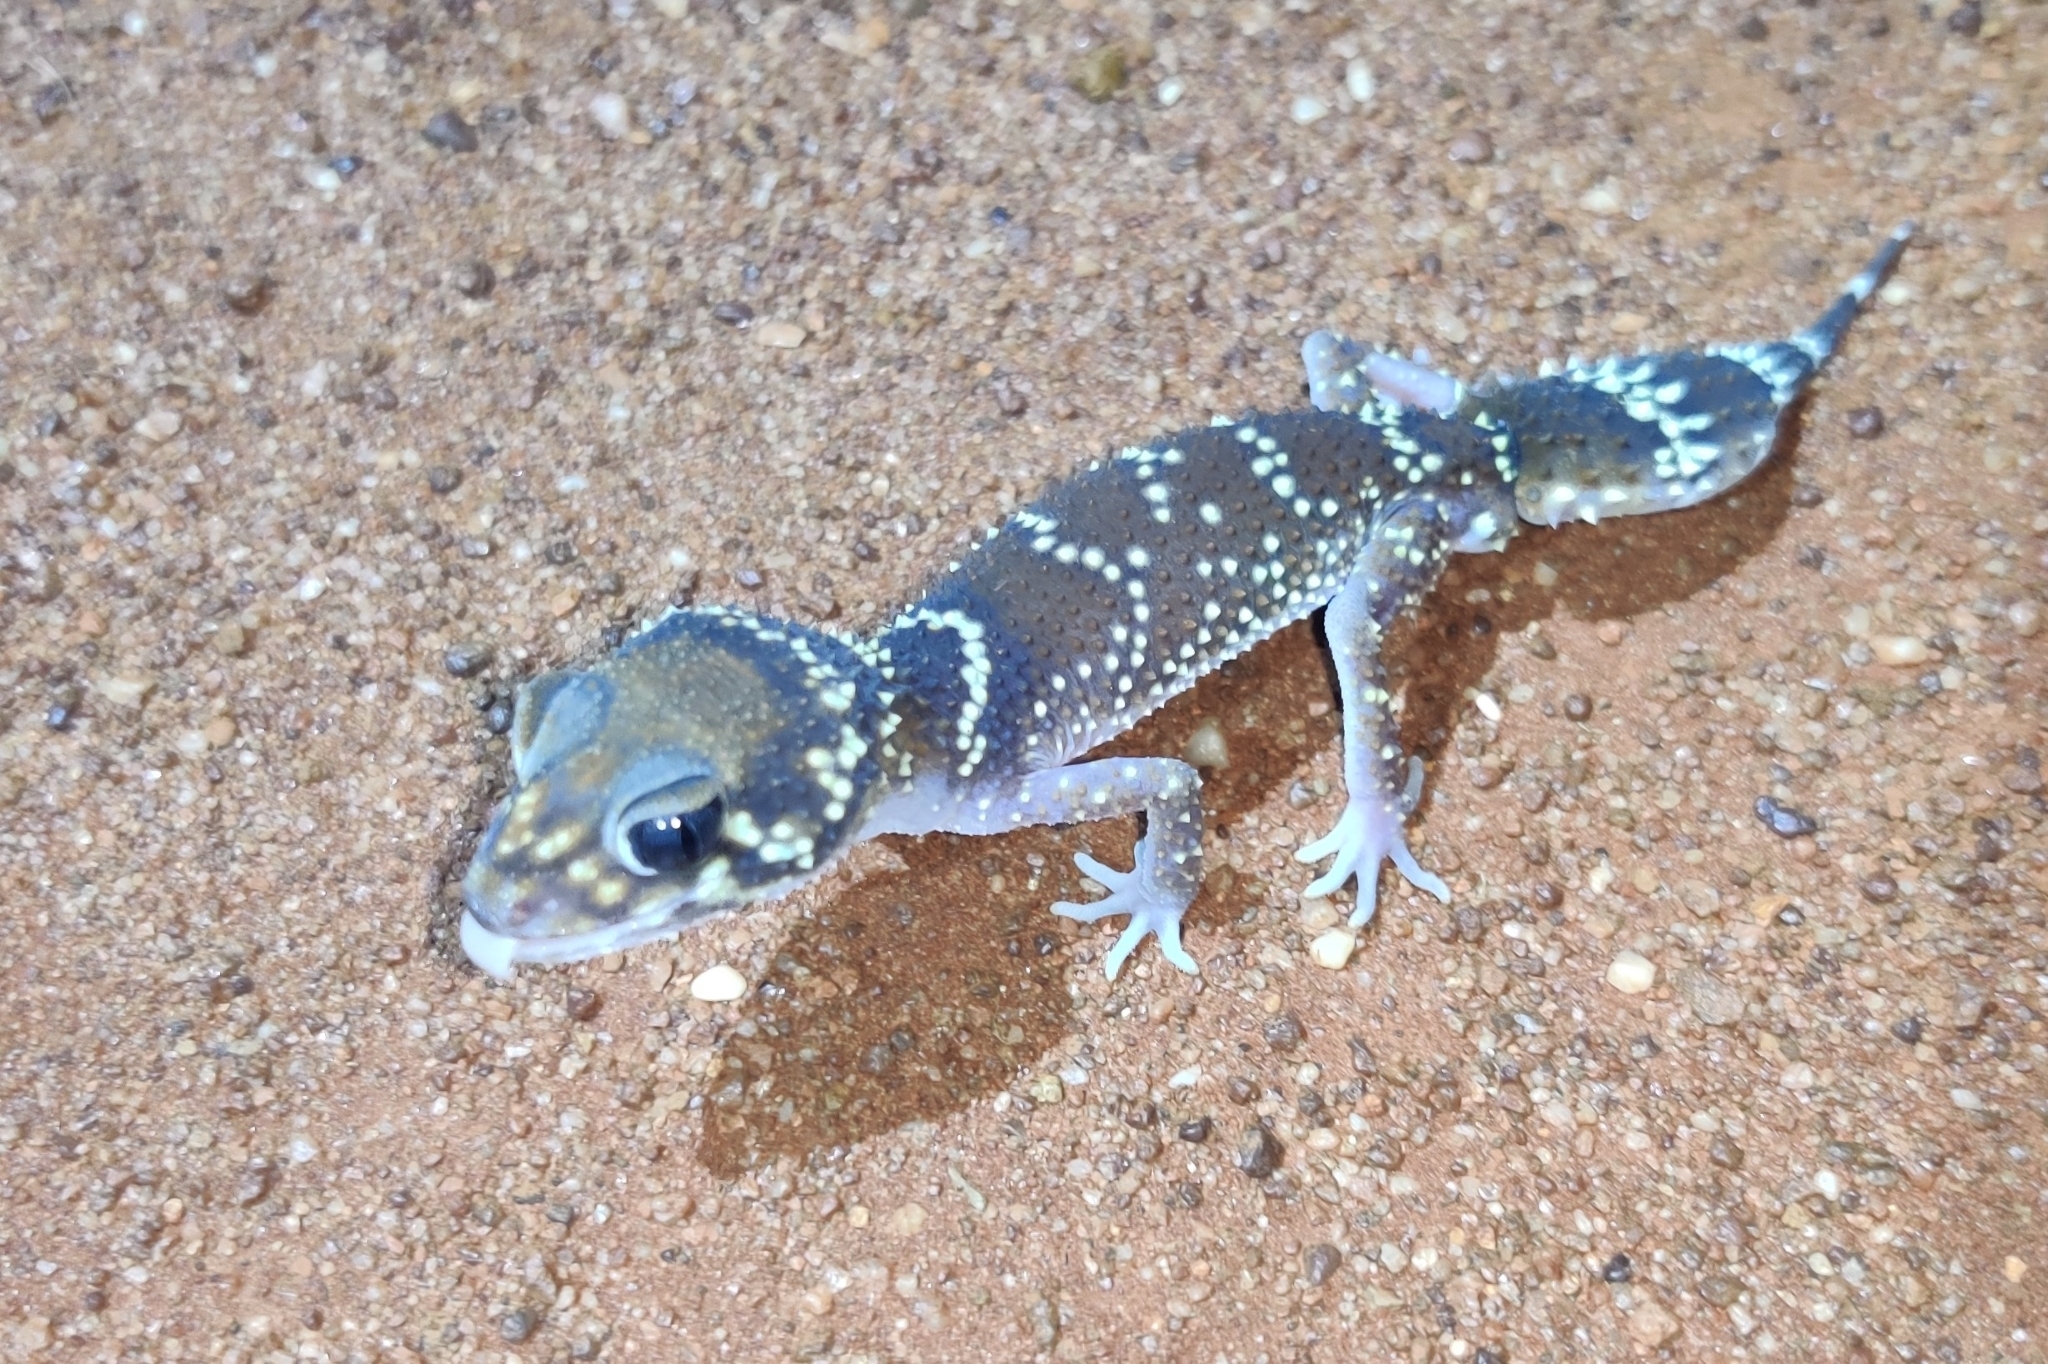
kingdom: Animalia
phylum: Chordata
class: Squamata
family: Carphodactylidae
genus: Underwoodisaurus
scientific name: Underwoodisaurus milii
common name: Barking gecko
